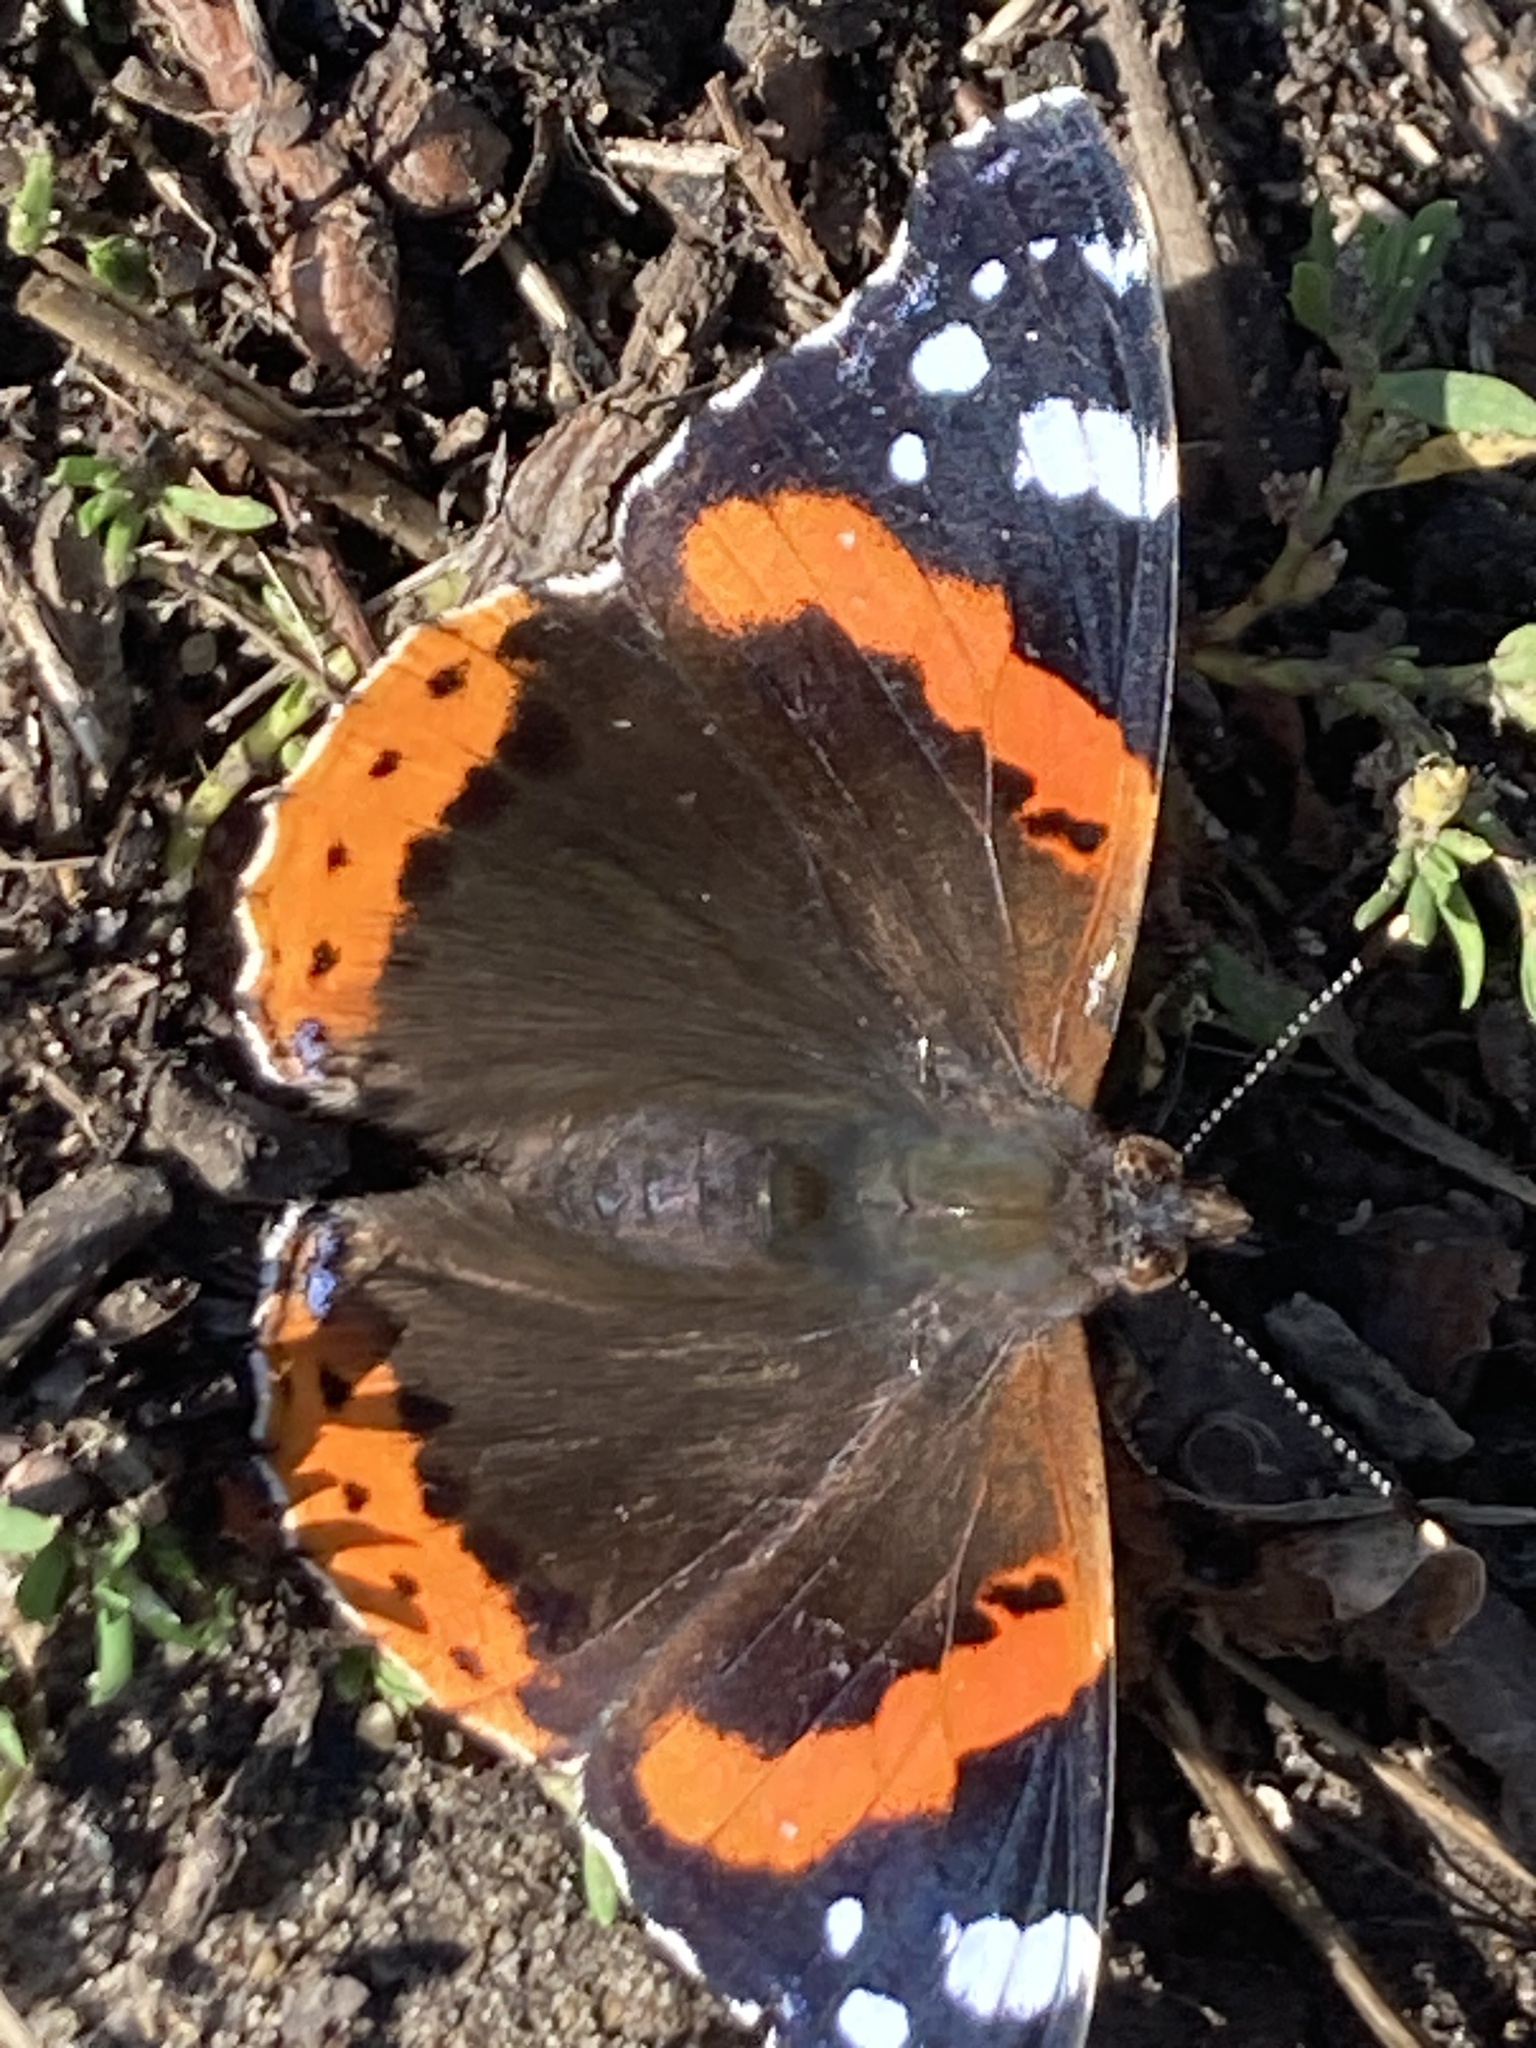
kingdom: Animalia
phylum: Arthropoda
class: Insecta
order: Lepidoptera
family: Nymphalidae
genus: Vanessa
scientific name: Vanessa atalanta
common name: Red admiral
